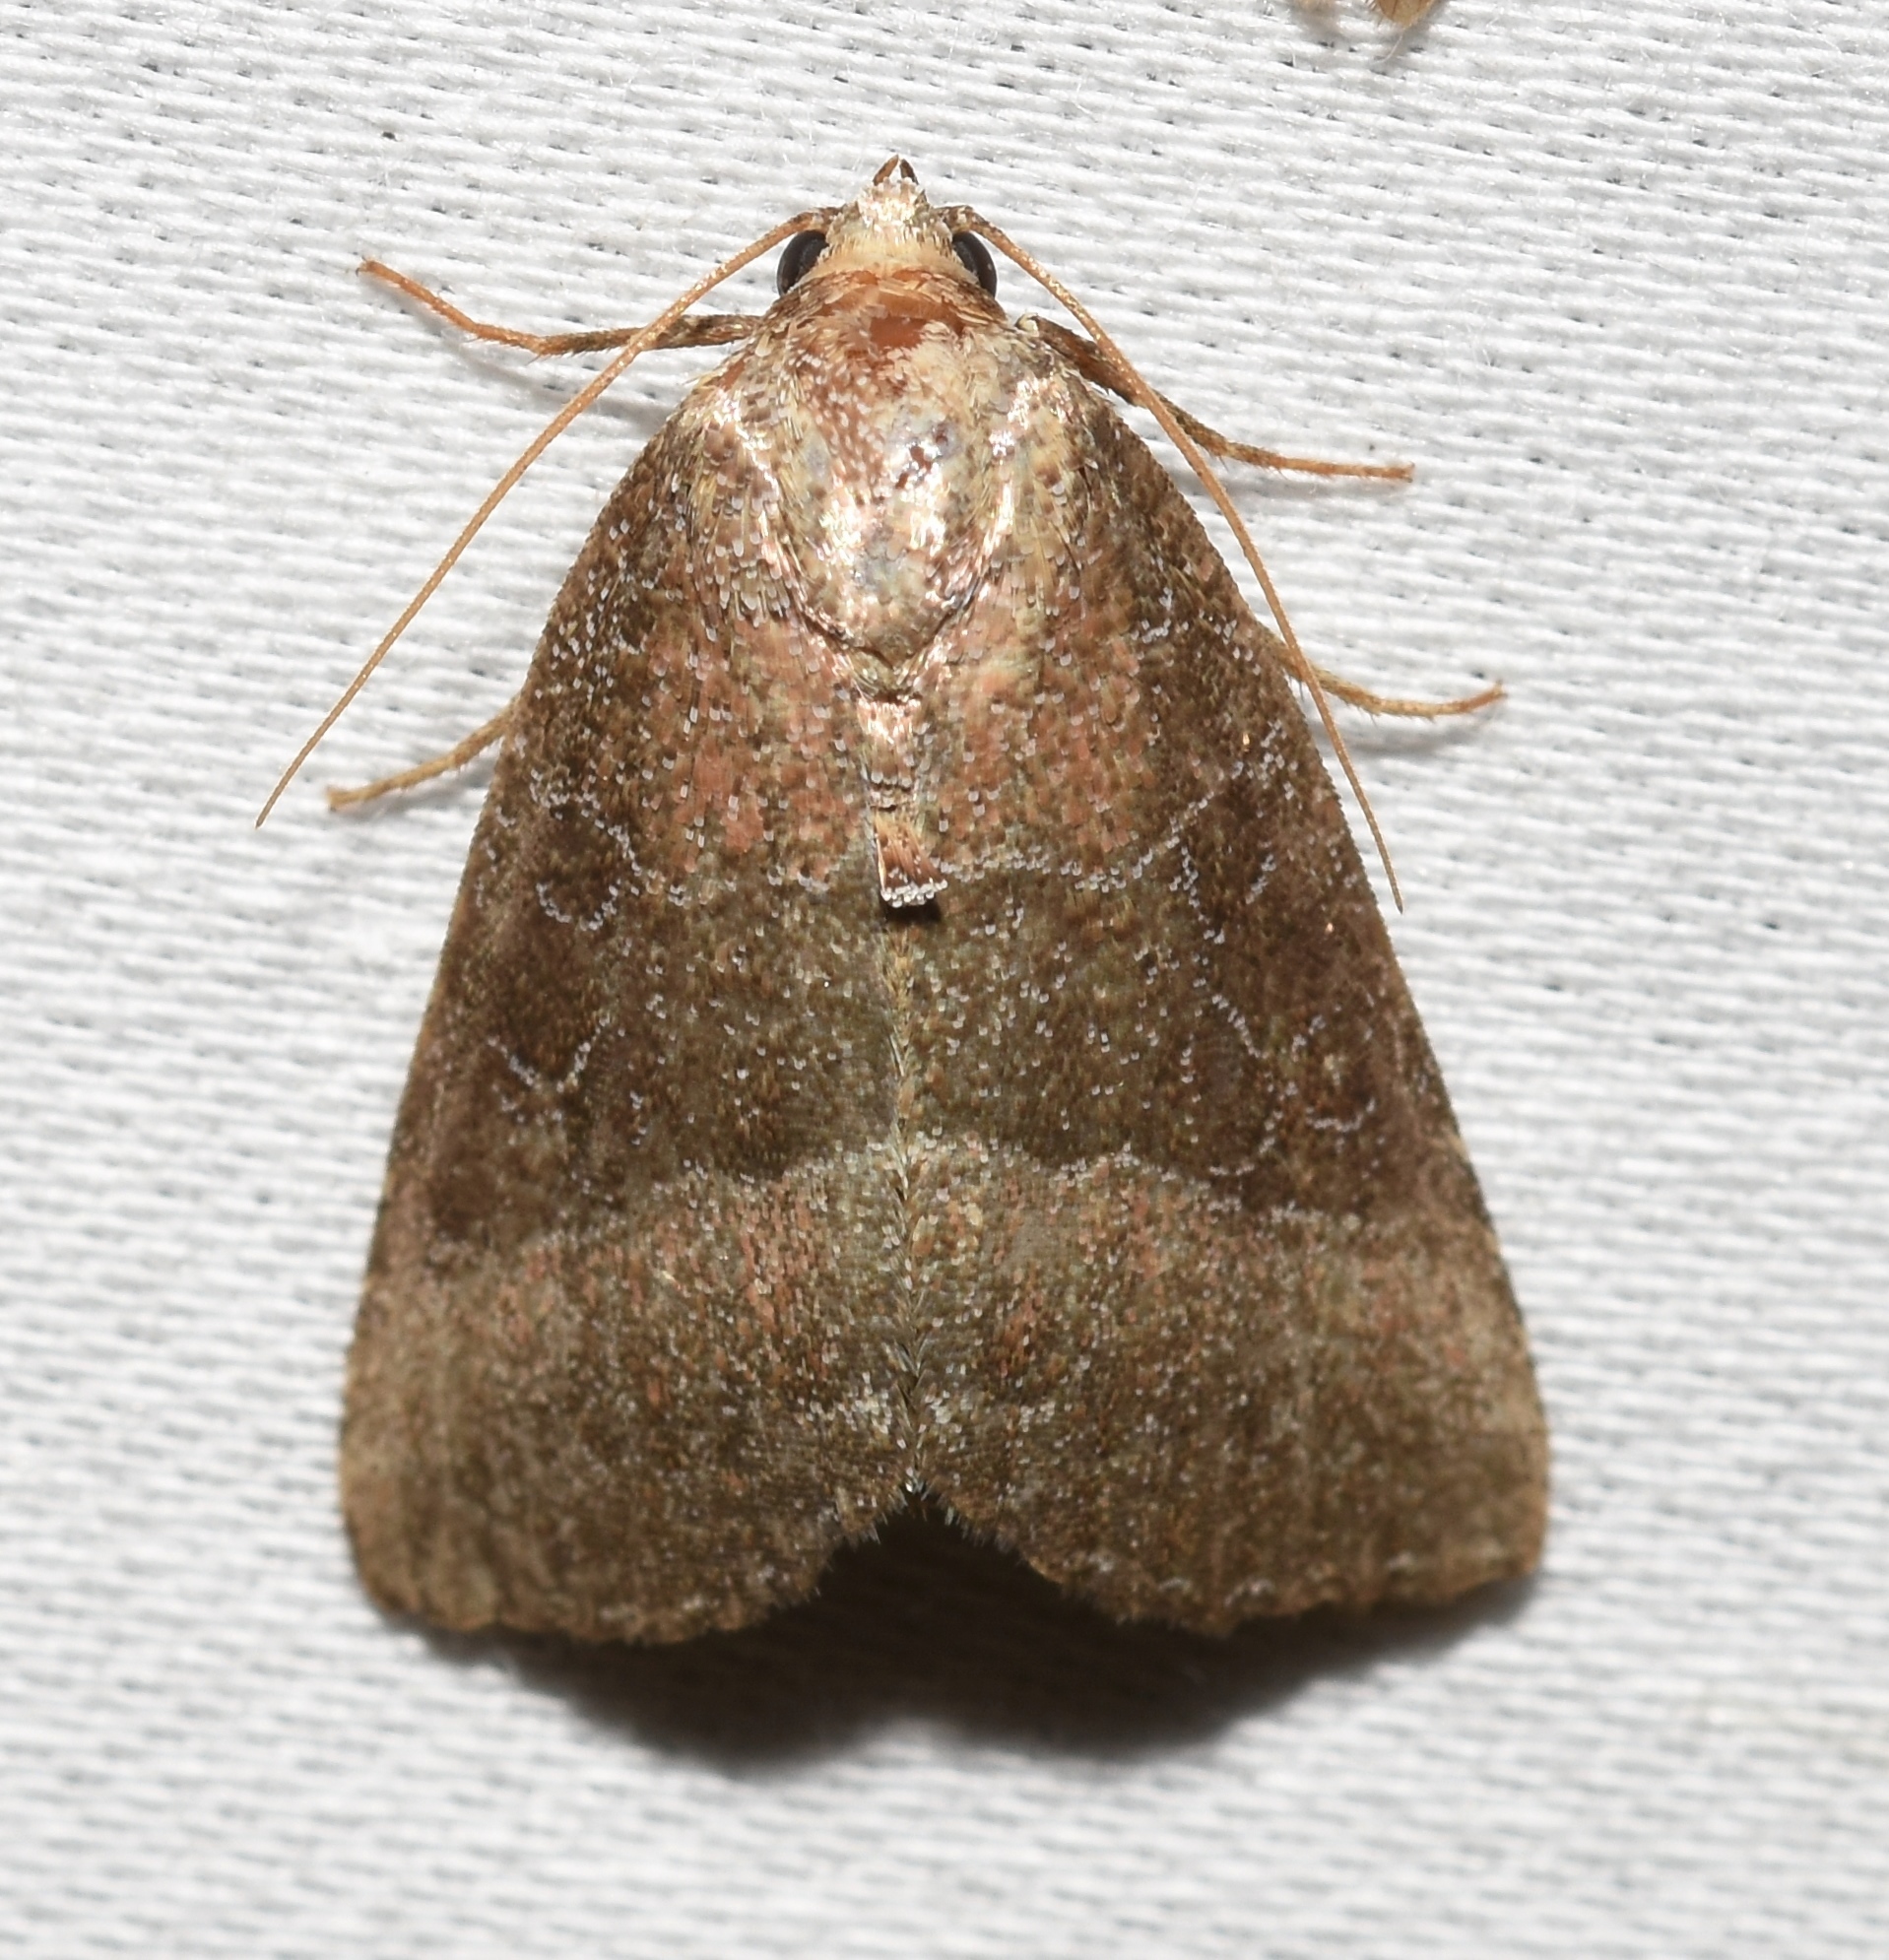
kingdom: Animalia
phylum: Arthropoda
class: Insecta
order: Lepidoptera
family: Noctuidae
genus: Ogdoconta
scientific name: Ogdoconta cinereola
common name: Common pinkband
